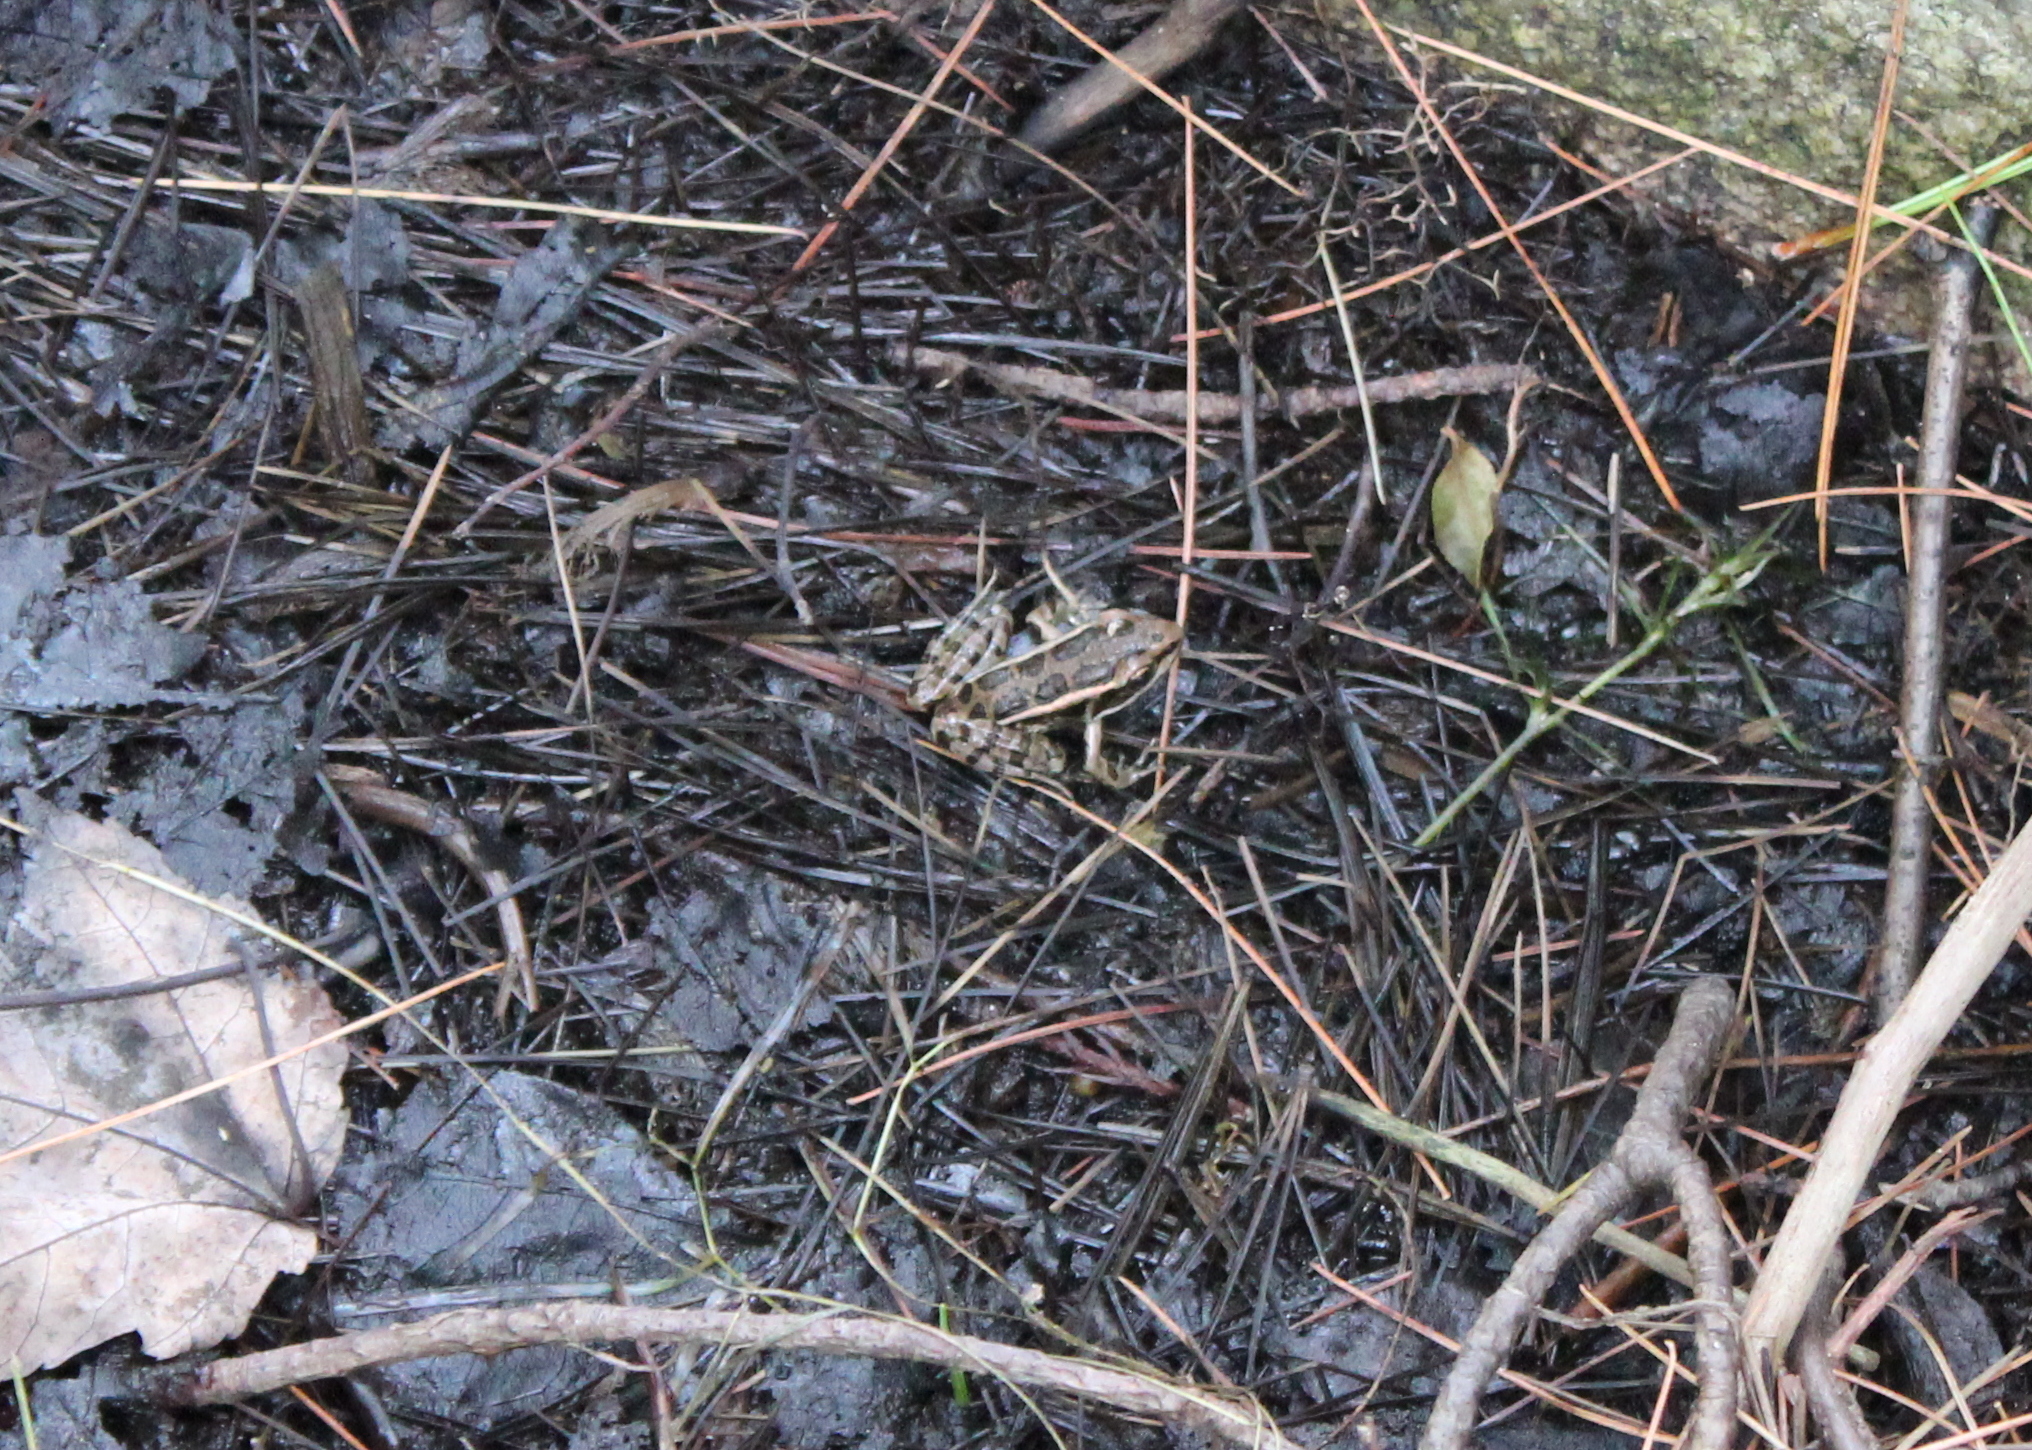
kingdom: Animalia
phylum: Chordata
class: Amphibia
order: Anura
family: Ranidae
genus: Lithobates
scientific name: Lithobates palustris
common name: Pickerel frog
